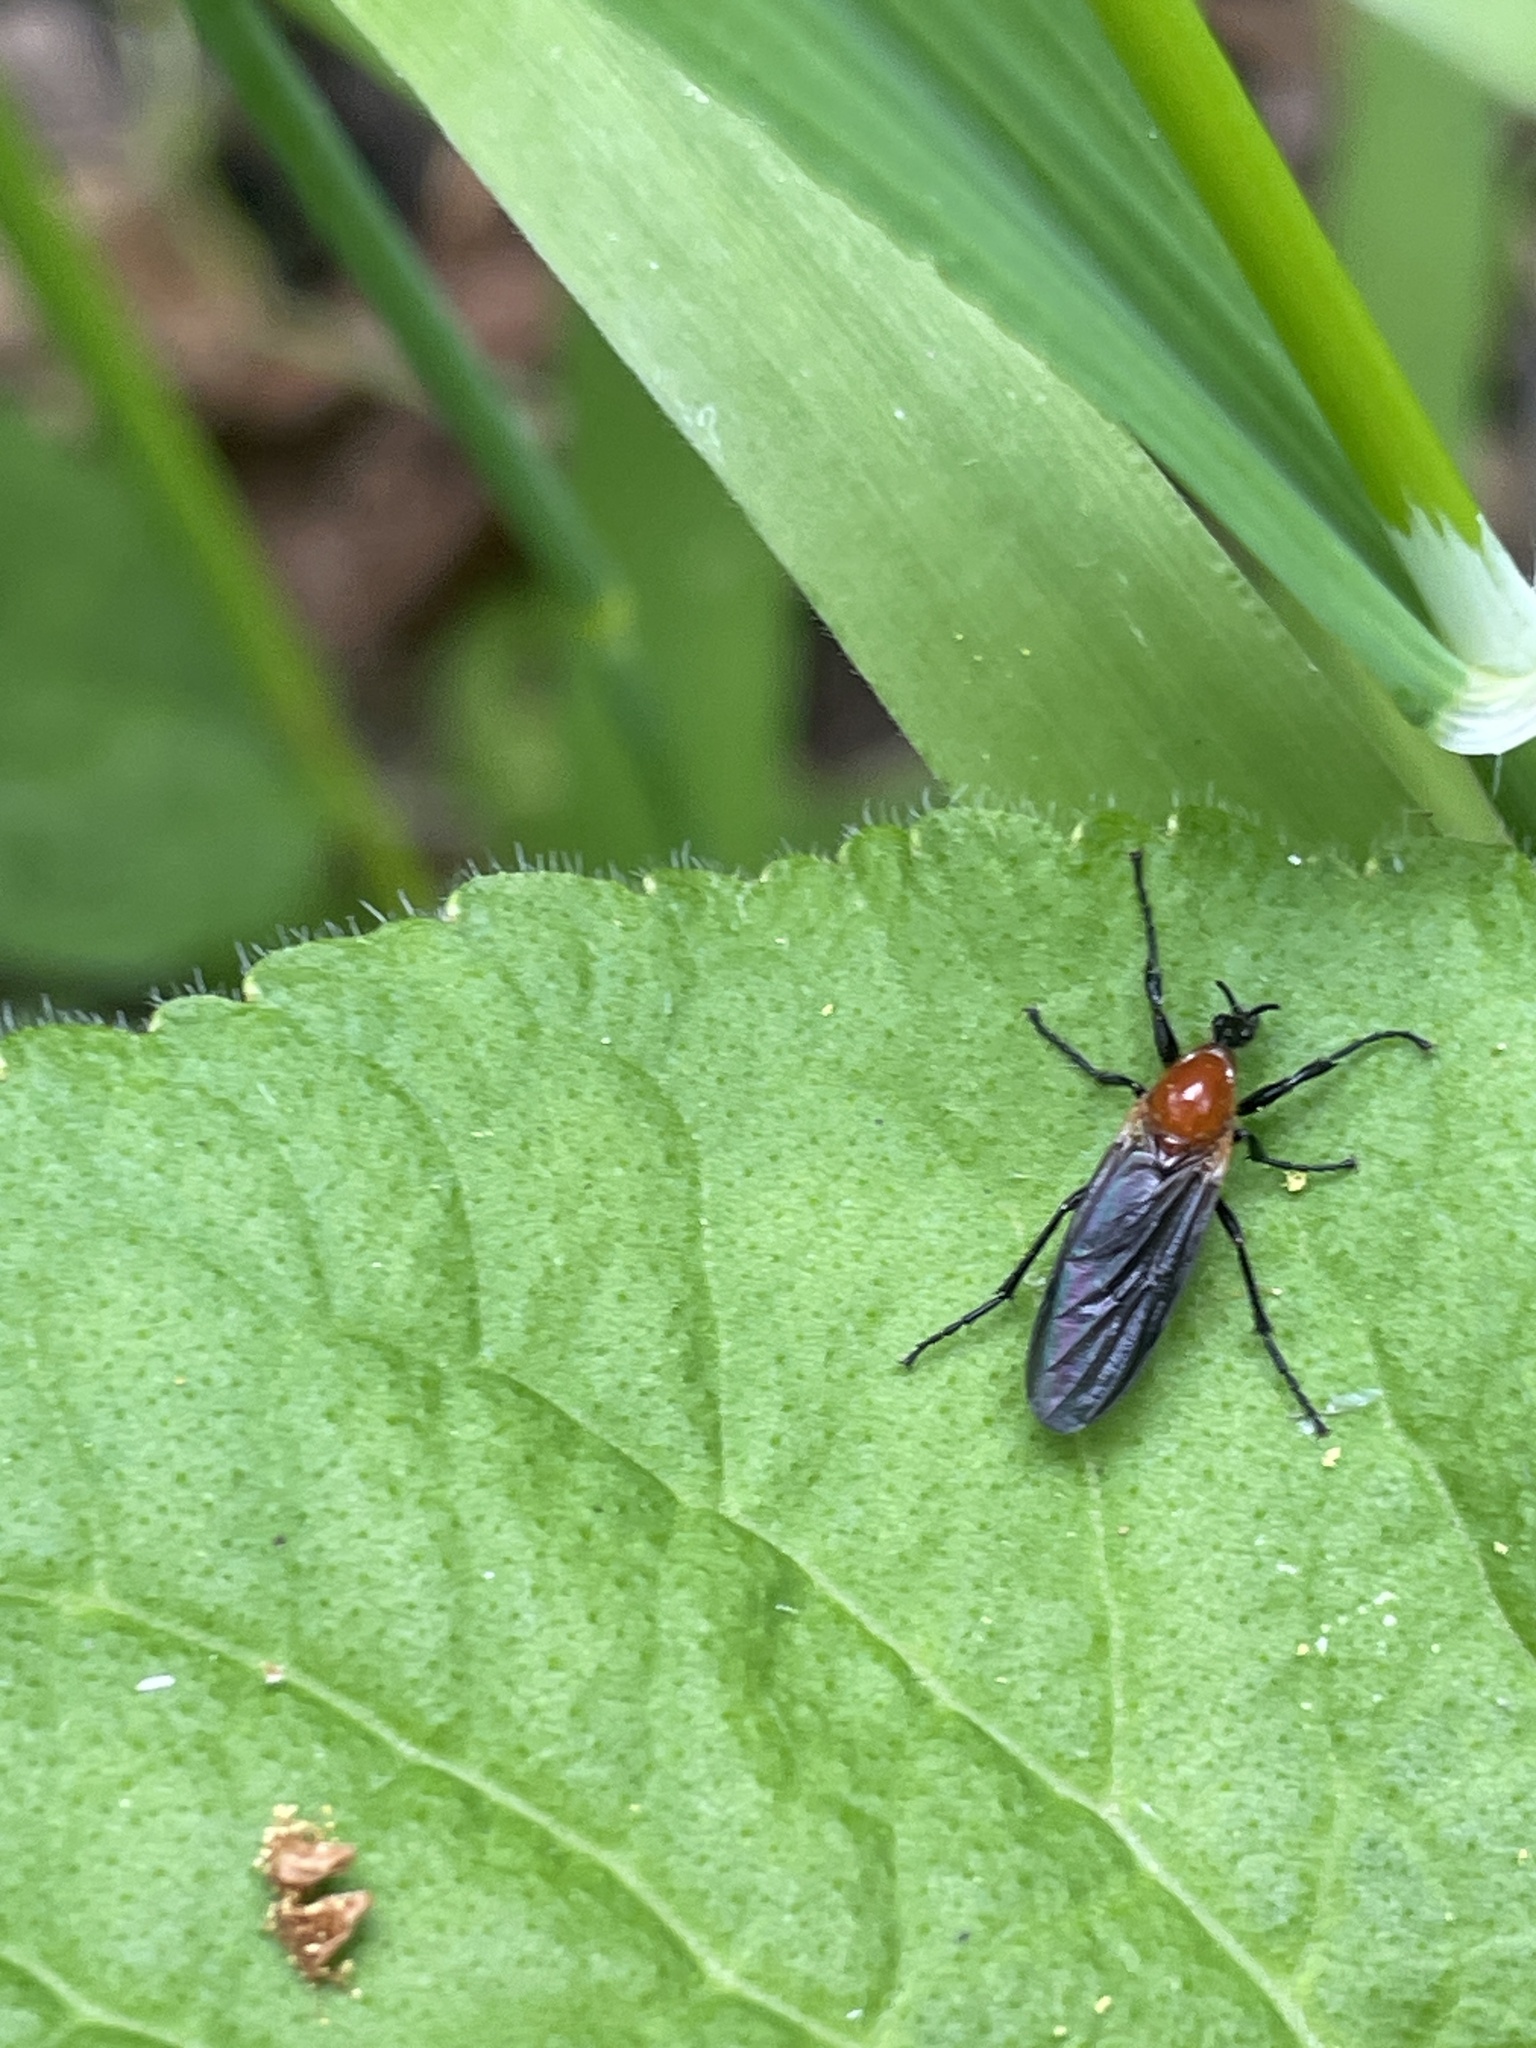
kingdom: Animalia
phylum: Arthropoda
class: Insecta
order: Diptera
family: Bibionidae
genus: Bibio
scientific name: Bibio imitator
